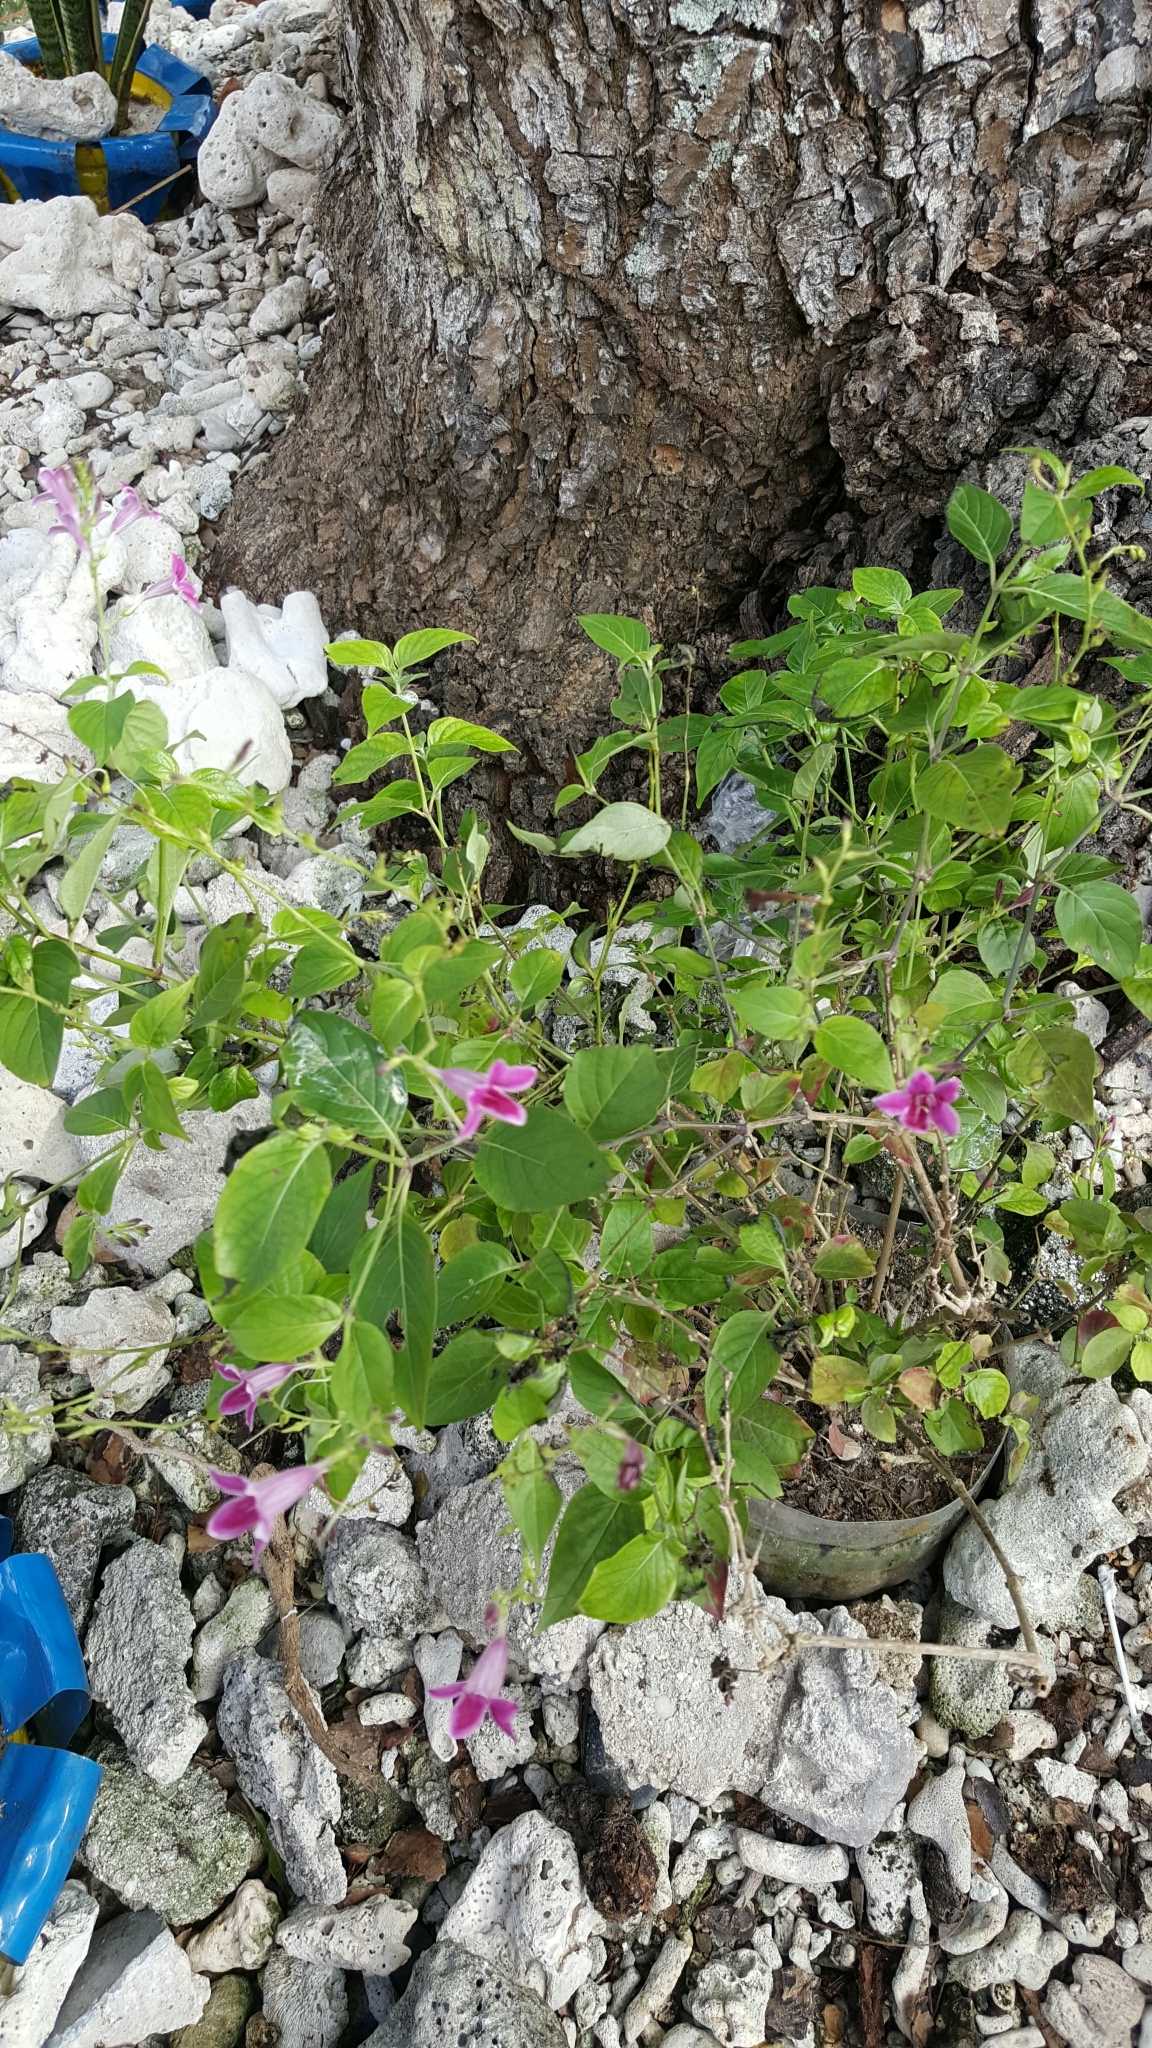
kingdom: Plantae
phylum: Tracheophyta
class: Magnoliopsida
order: Lamiales
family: Acanthaceae
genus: Asystasia
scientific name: Asystasia nemorum
